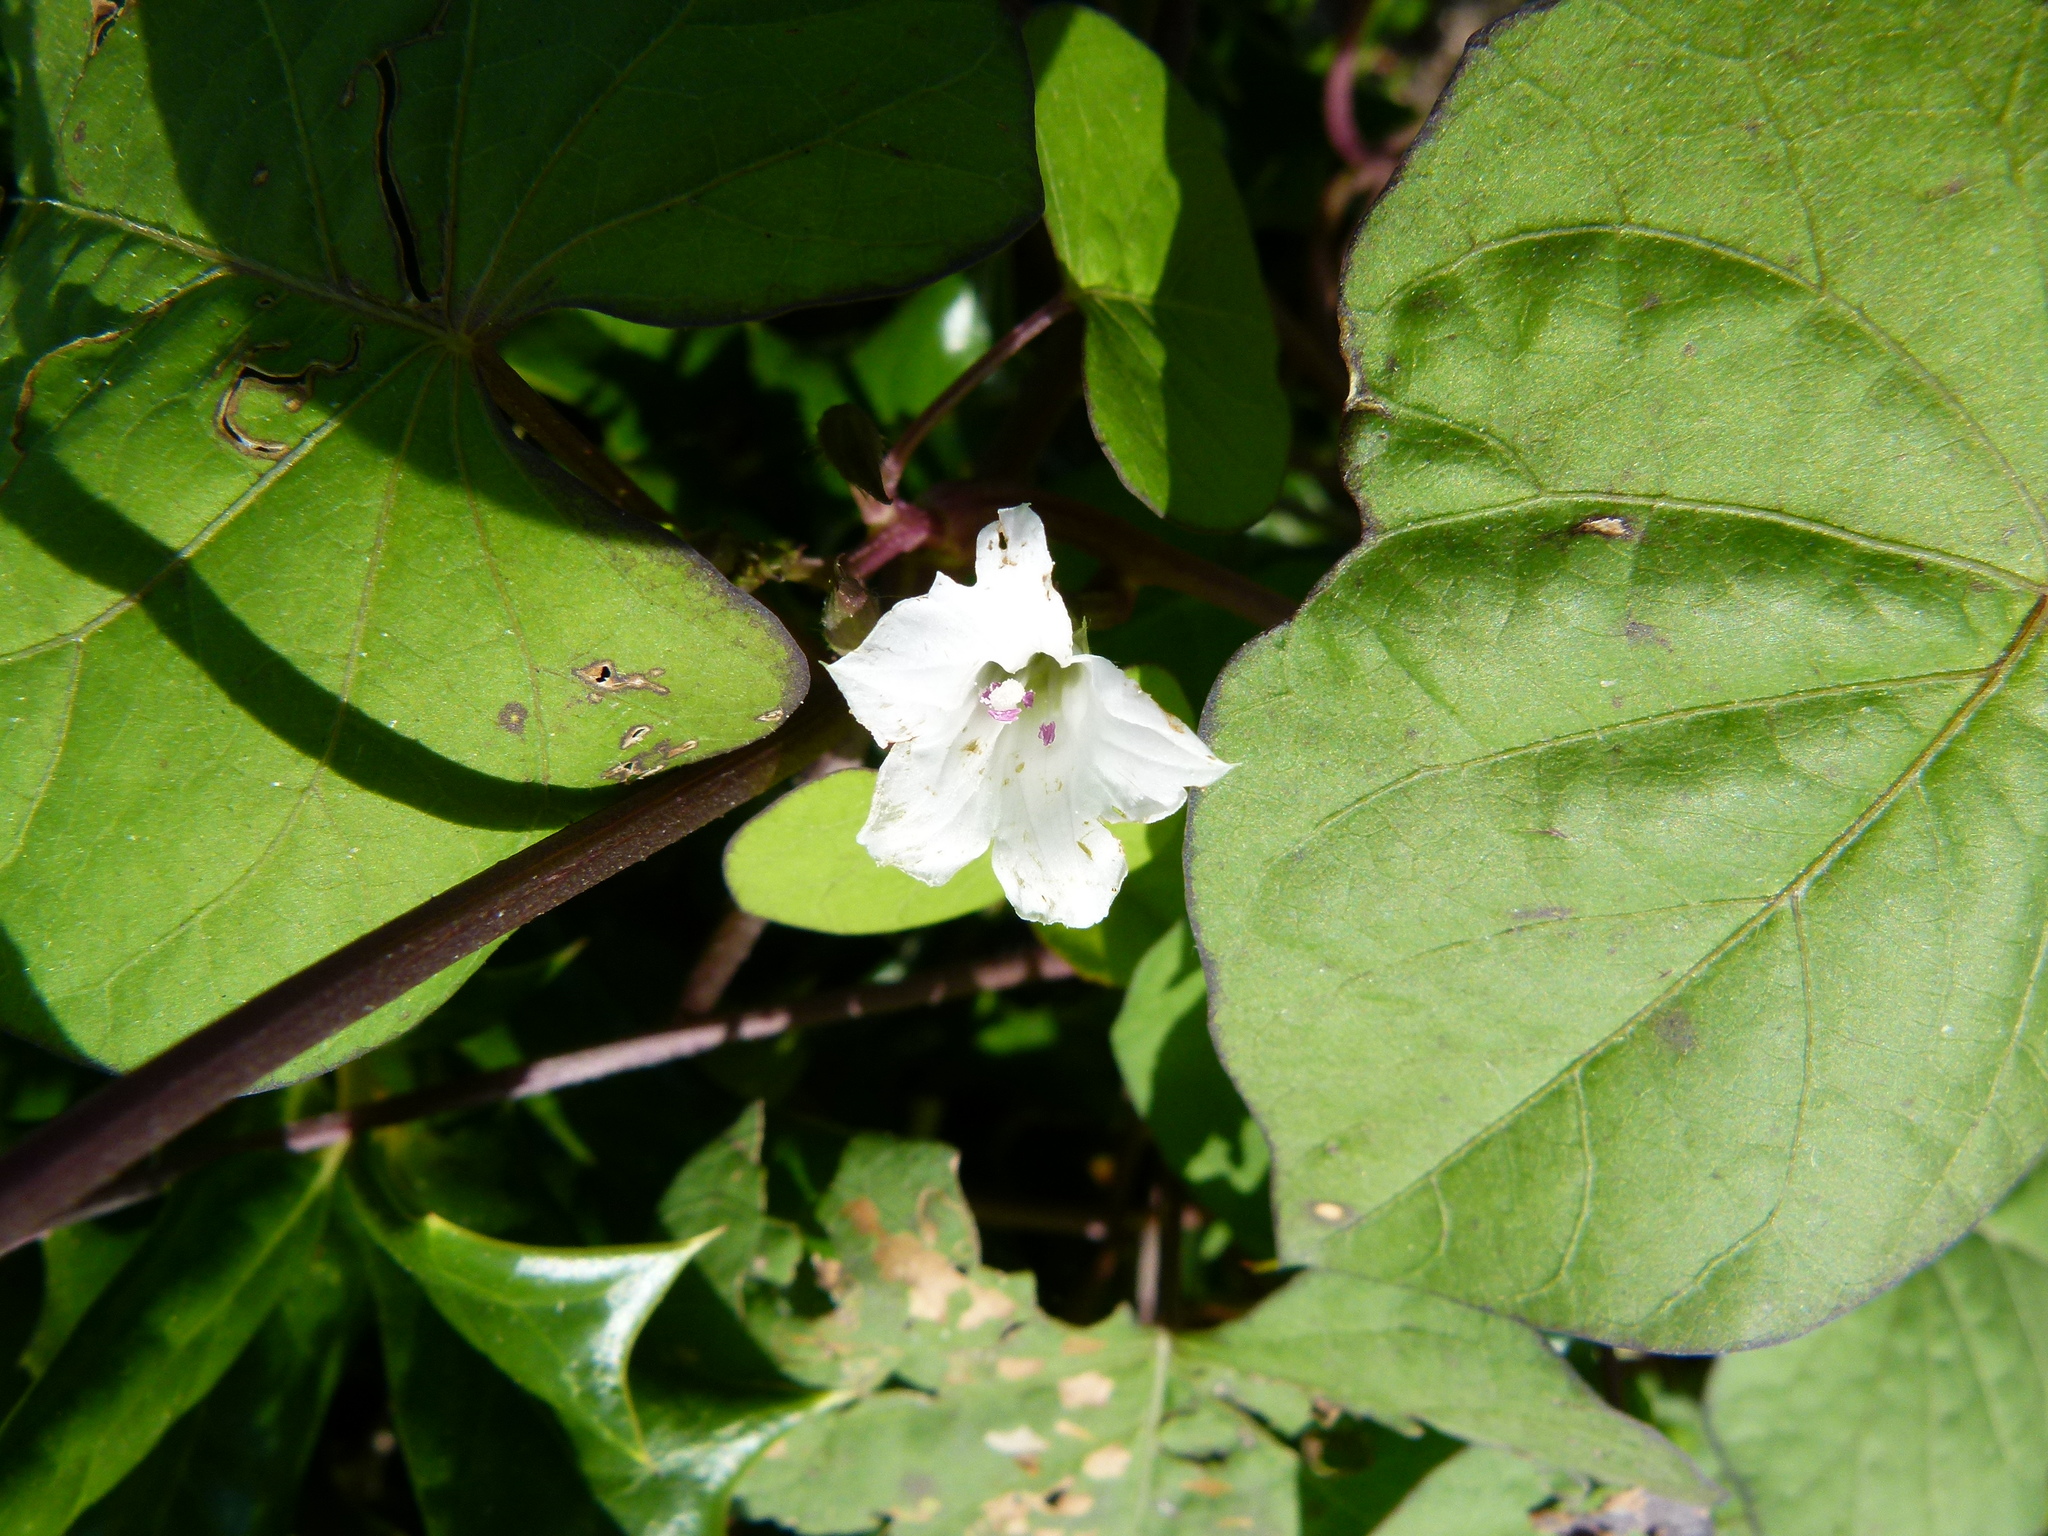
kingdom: Plantae
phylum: Tracheophyta
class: Magnoliopsida
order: Solanales
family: Convolvulaceae
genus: Ipomoea
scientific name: Ipomoea lacunosa
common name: White morning-glory
